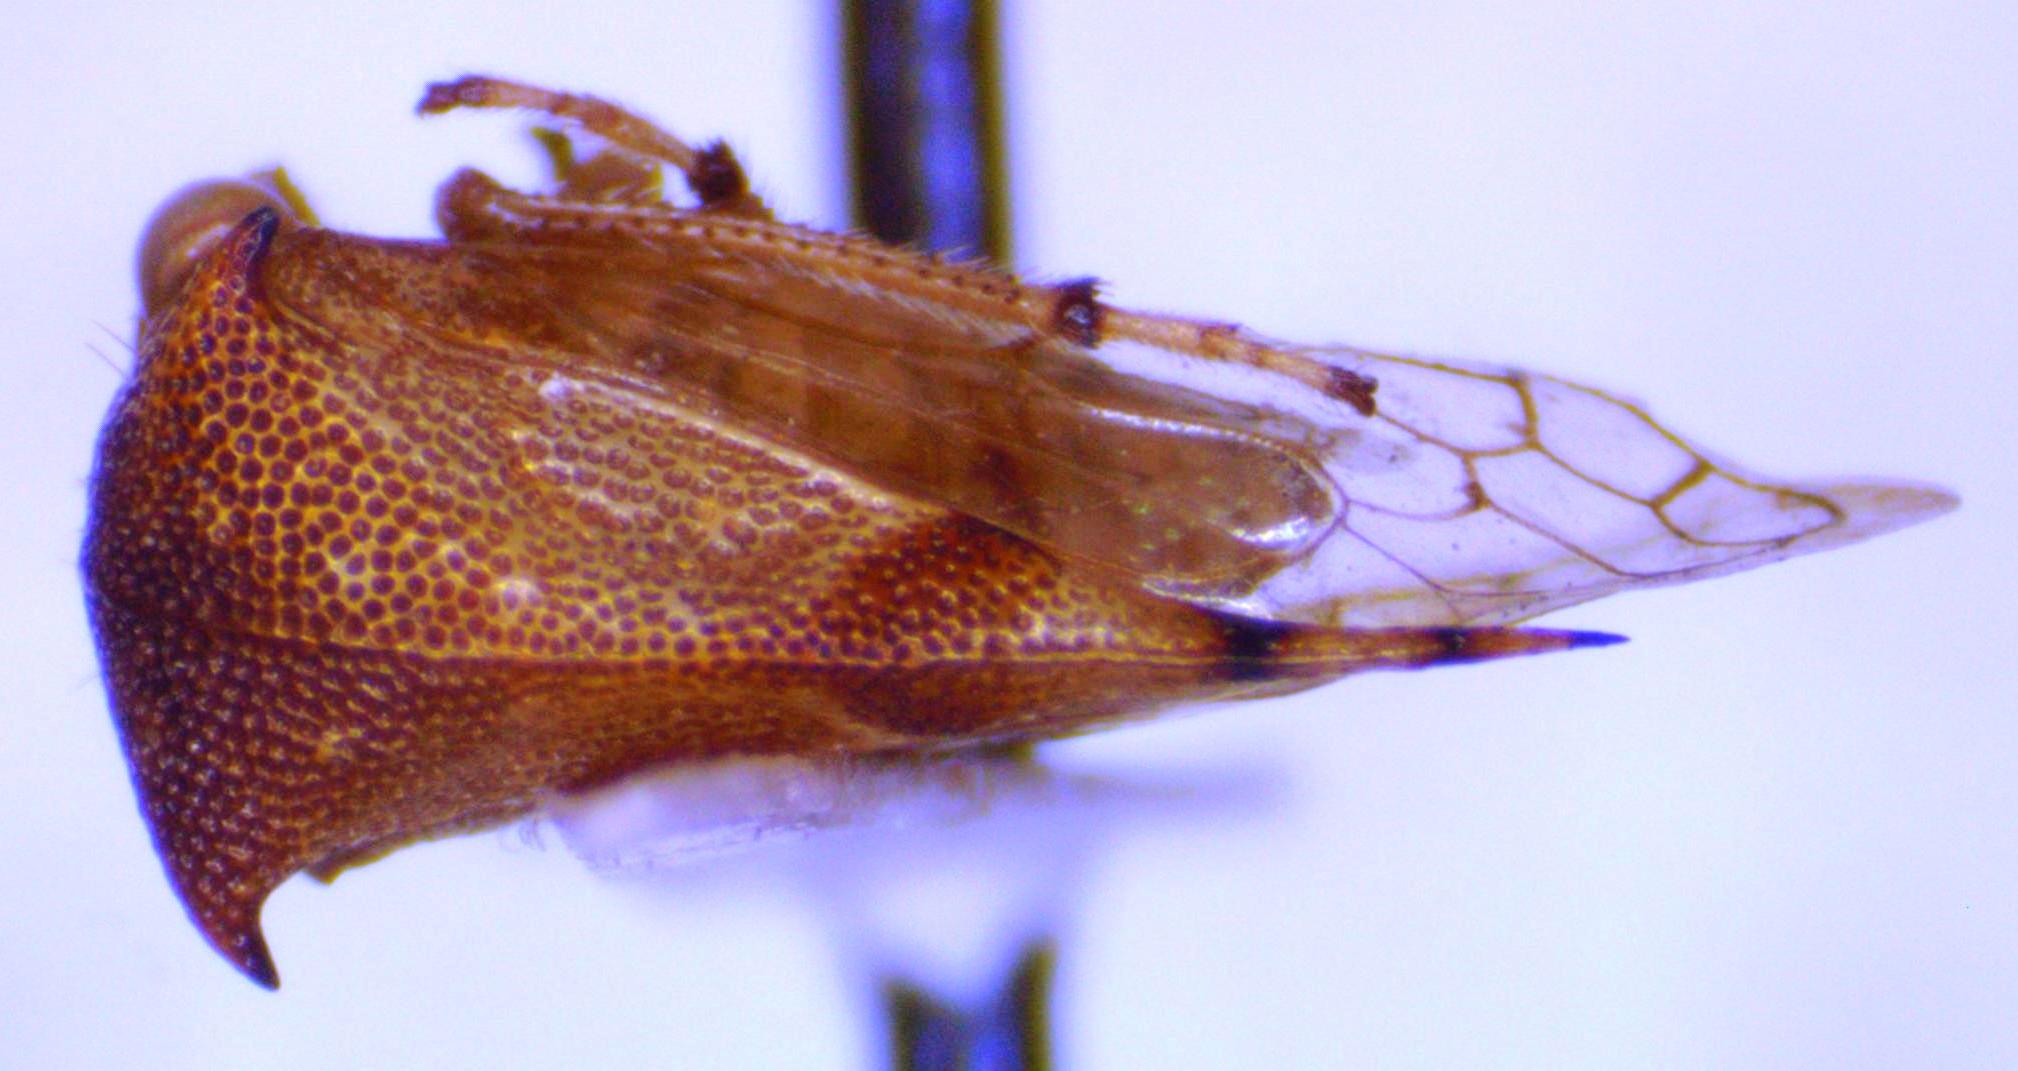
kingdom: Animalia
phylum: Arthropoda
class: Insecta
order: Hemiptera
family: Membracidae
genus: Paraceresa
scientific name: Paraceresa bifasciata
